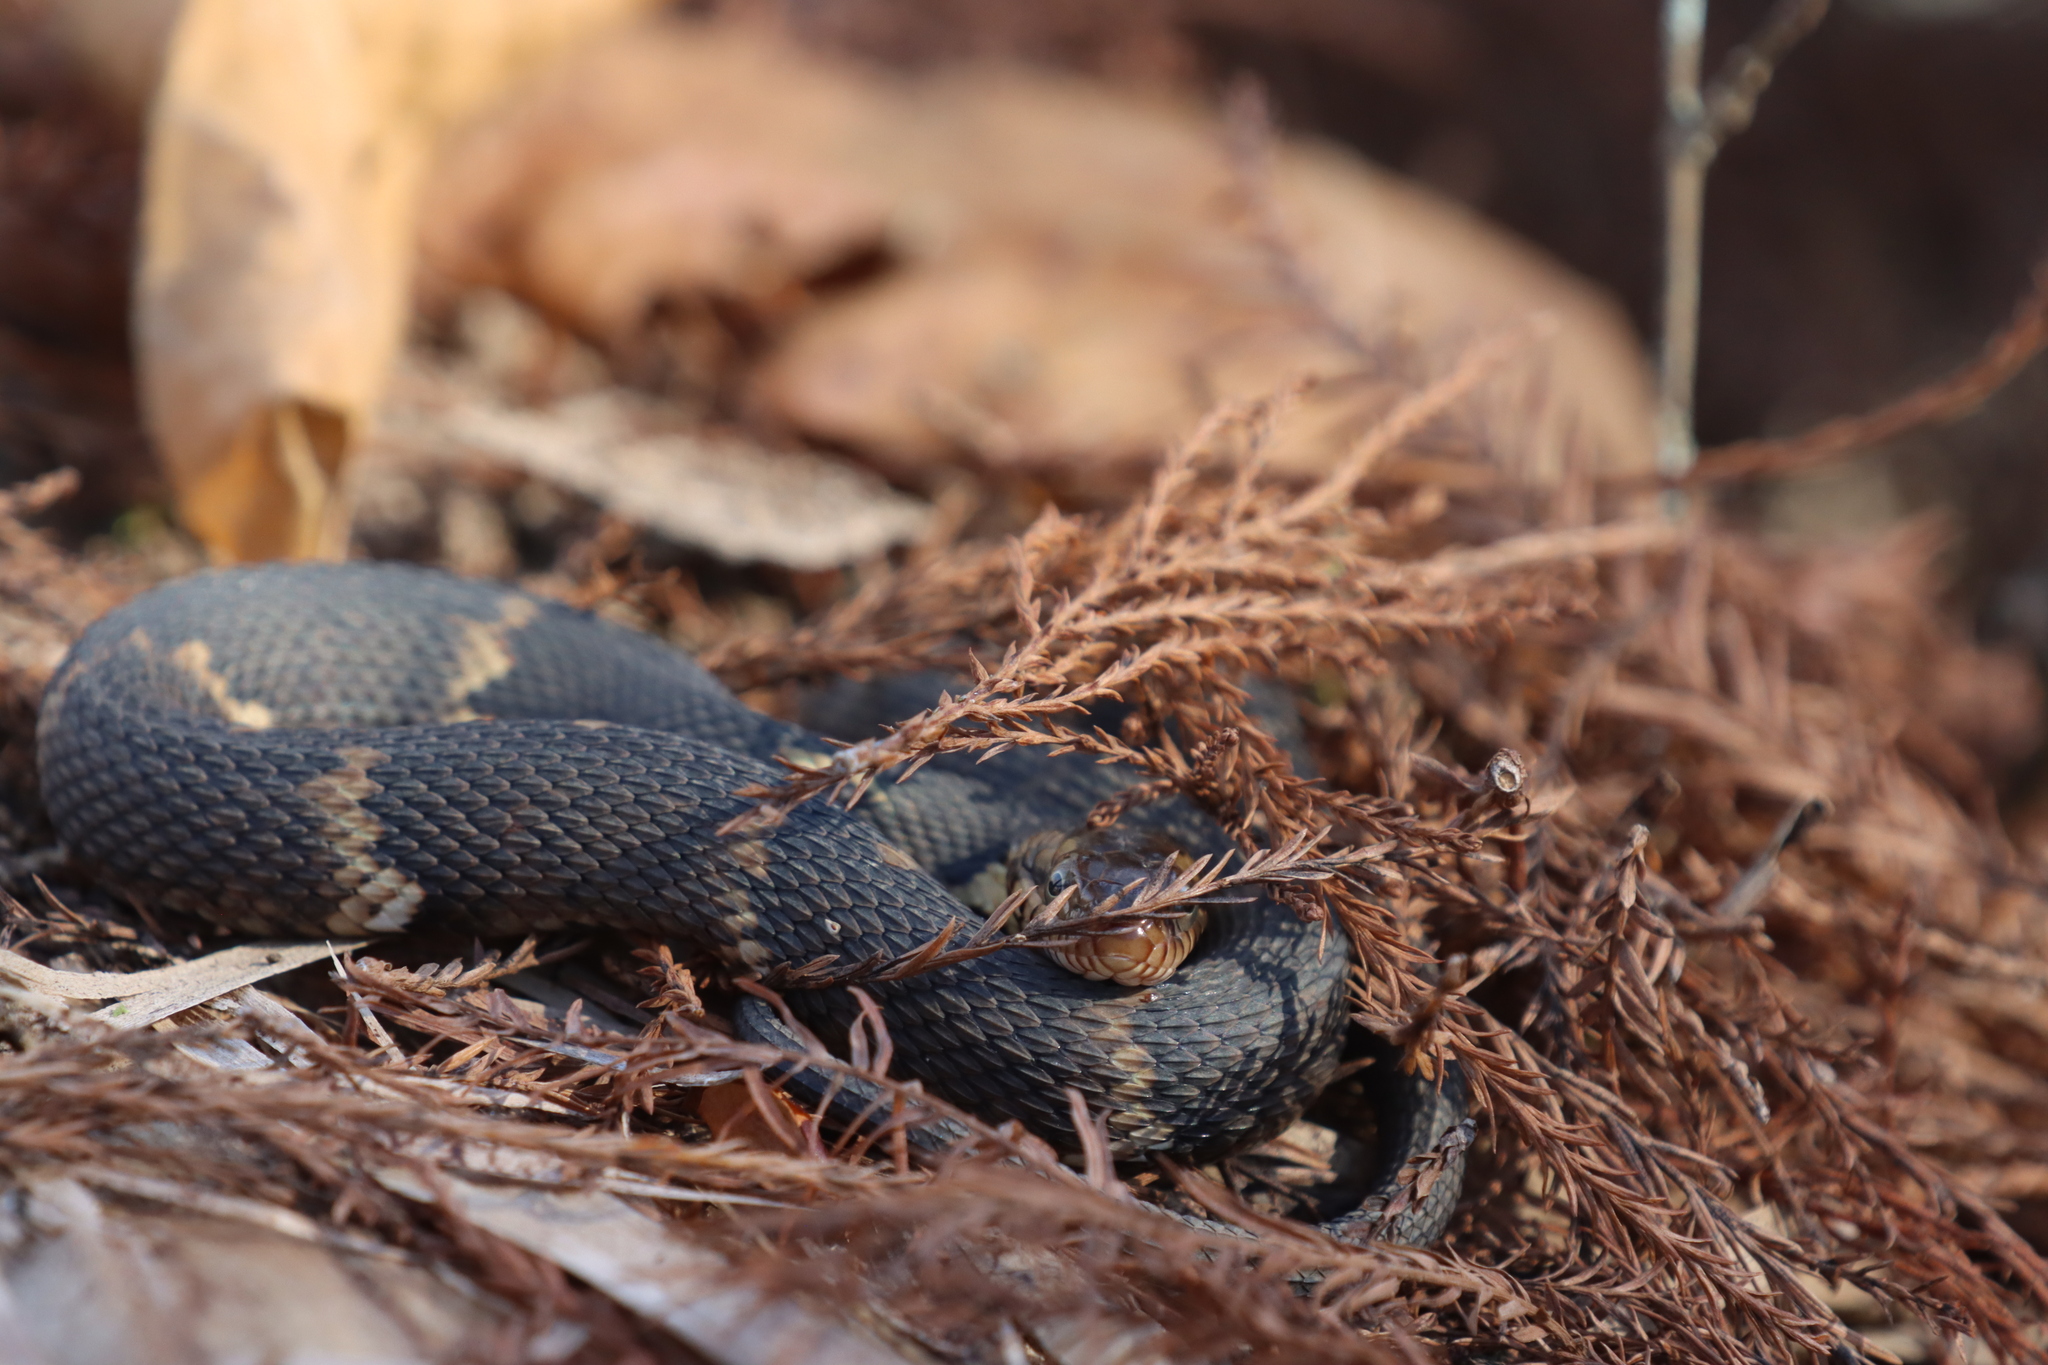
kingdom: Animalia
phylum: Chordata
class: Squamata
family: Colubridae
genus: Nerodia
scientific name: Nerodia fasciata
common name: Southern water snake
